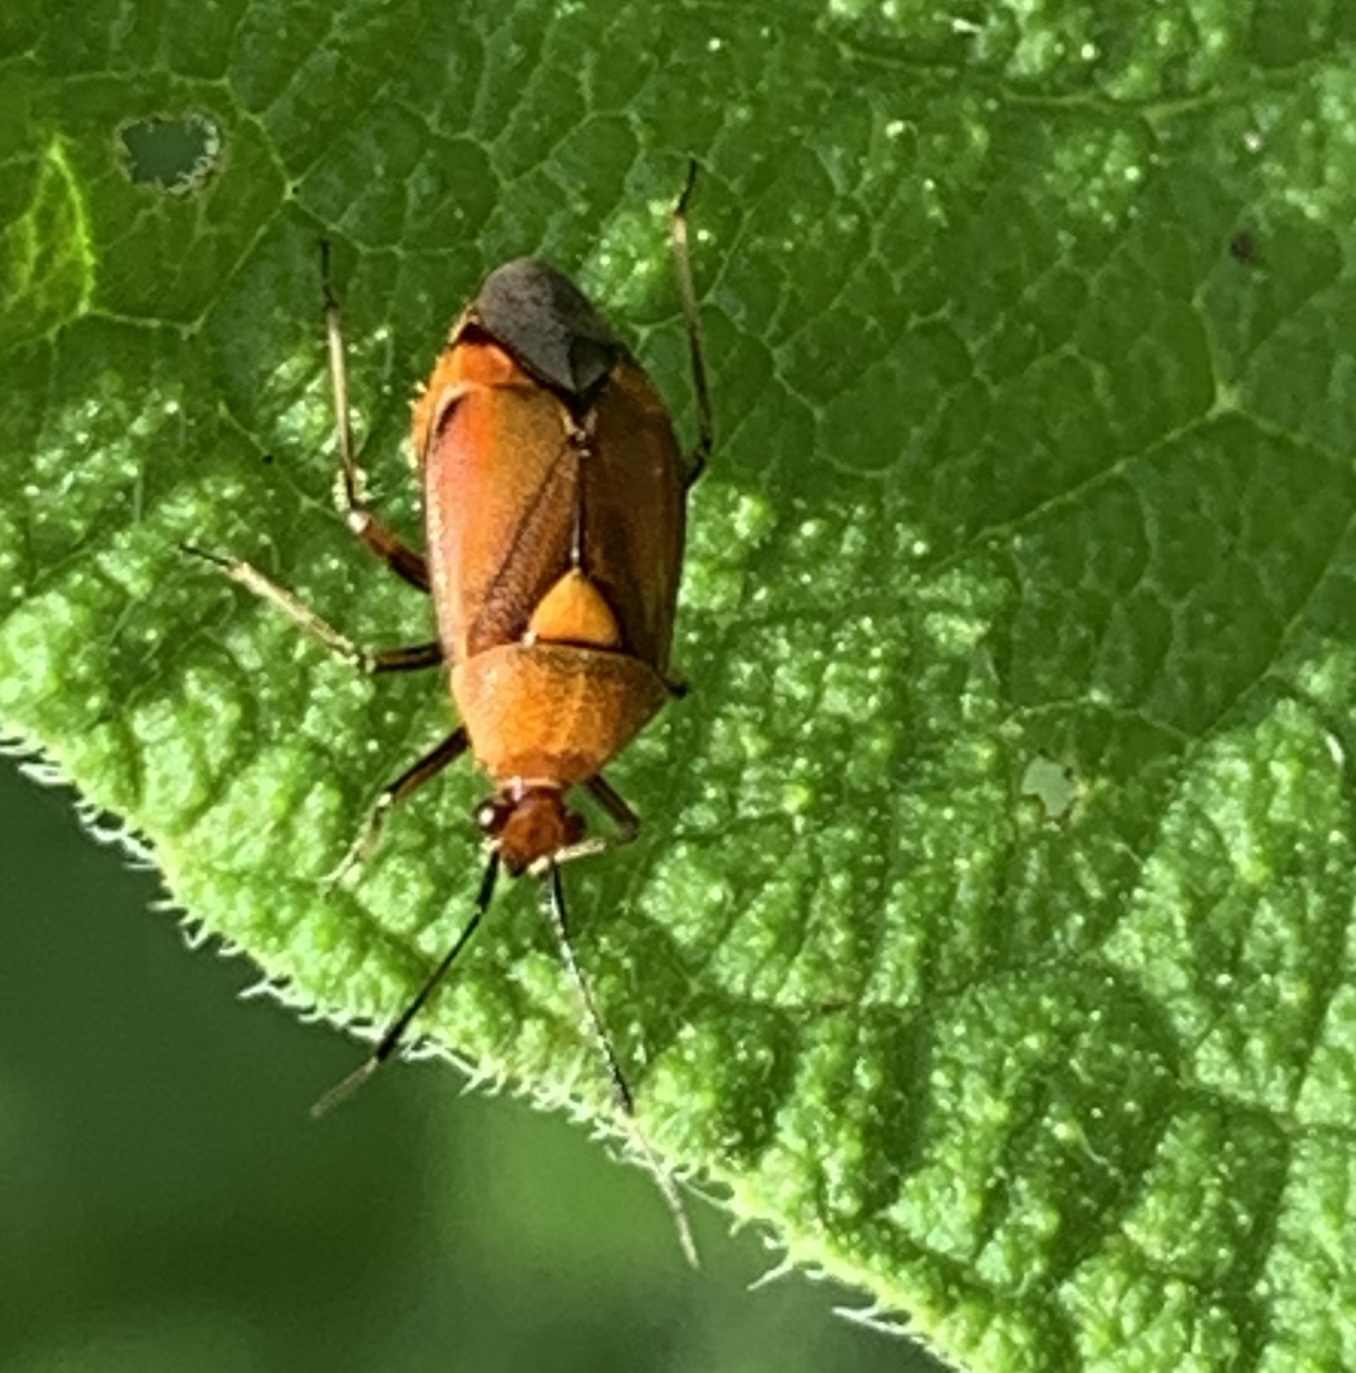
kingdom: Animalia
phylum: Arthropoda
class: Insecta
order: Hemiptera
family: Miridae
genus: Deraeocoris
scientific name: Deraeocoris ruber
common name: Plant bug
